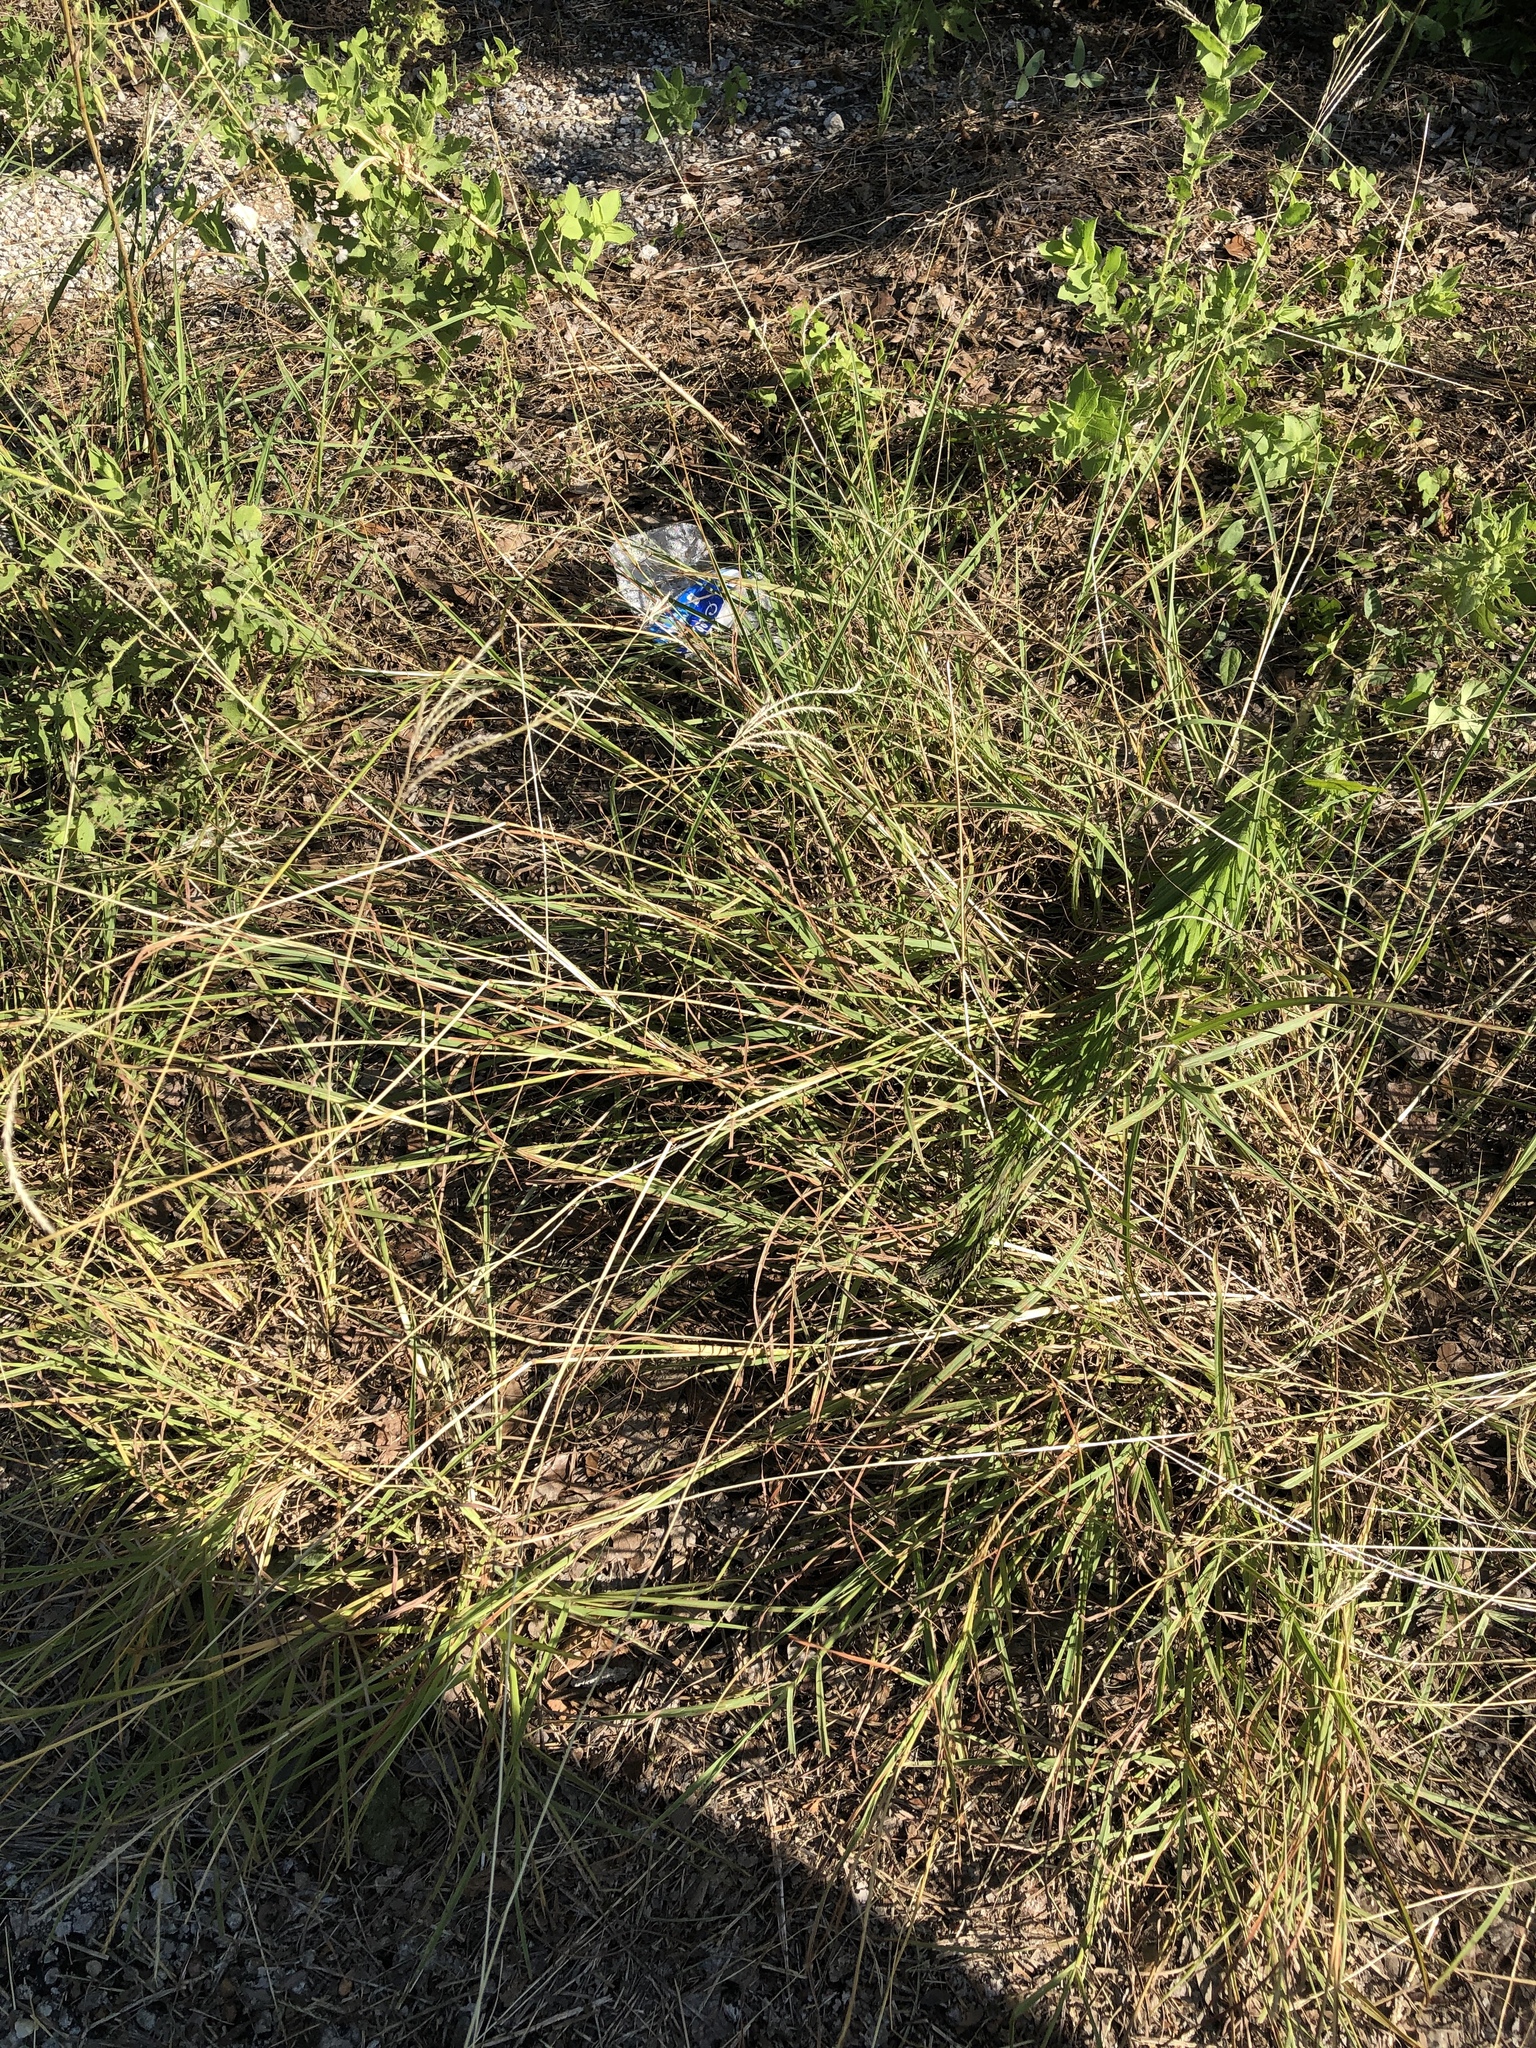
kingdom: Plantae
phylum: Tracheophyta
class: Liliopsida
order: Poales
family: Poaceae
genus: Bothriochloa
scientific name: Bothriochloa ischaemum
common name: Yellow bluestem
